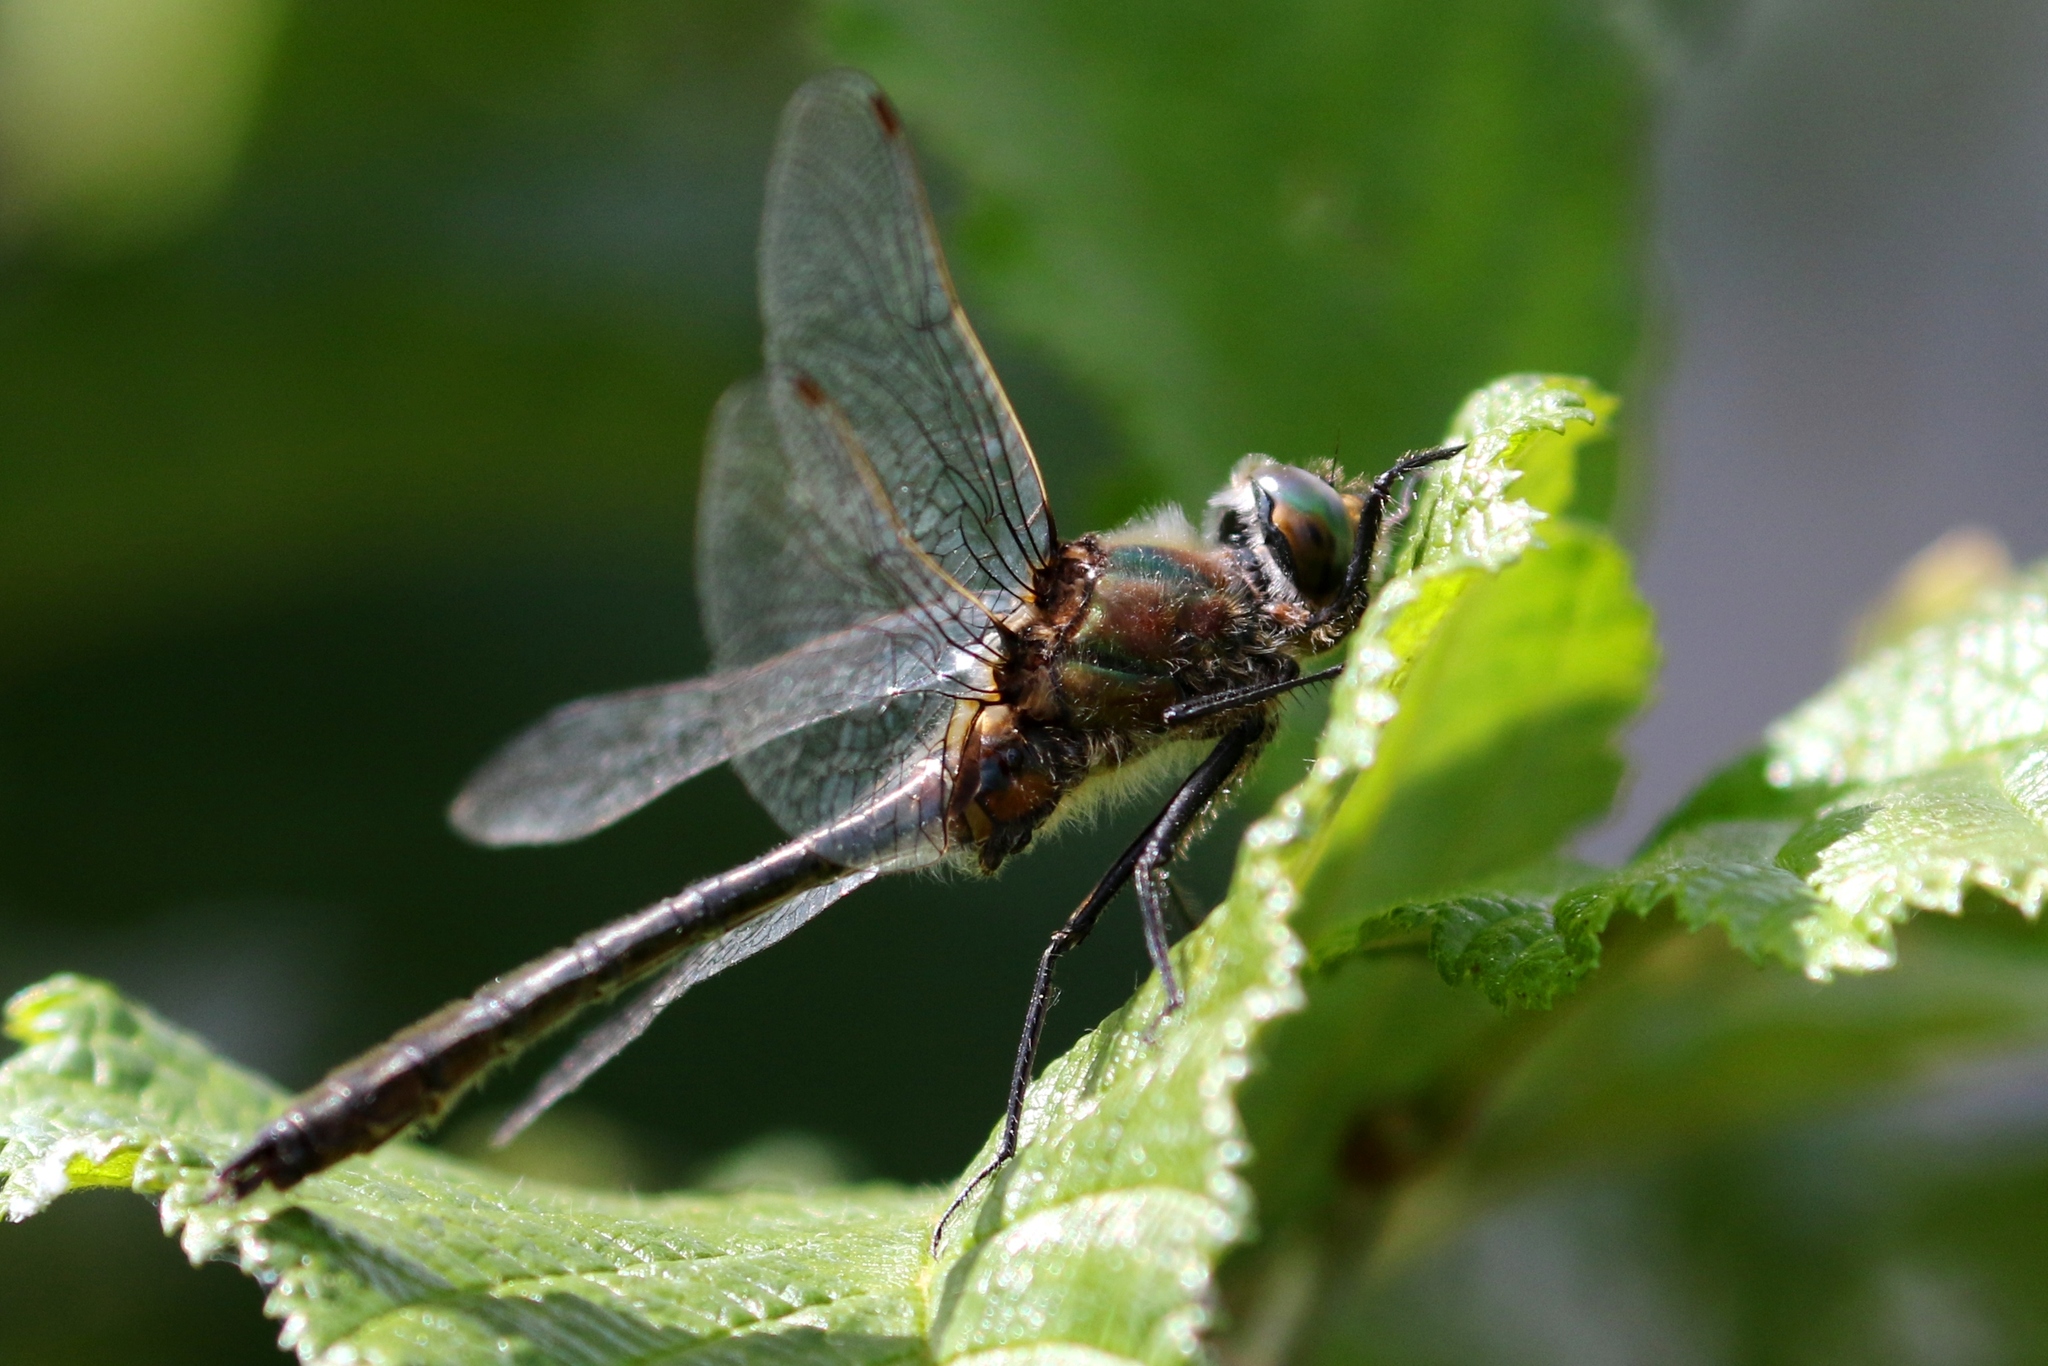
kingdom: Animalia
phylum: Arthropoda
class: Insecta
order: Odonata
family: Corduliidae
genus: Cordulia
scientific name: Cordulia shurtleffii
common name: American emerald
